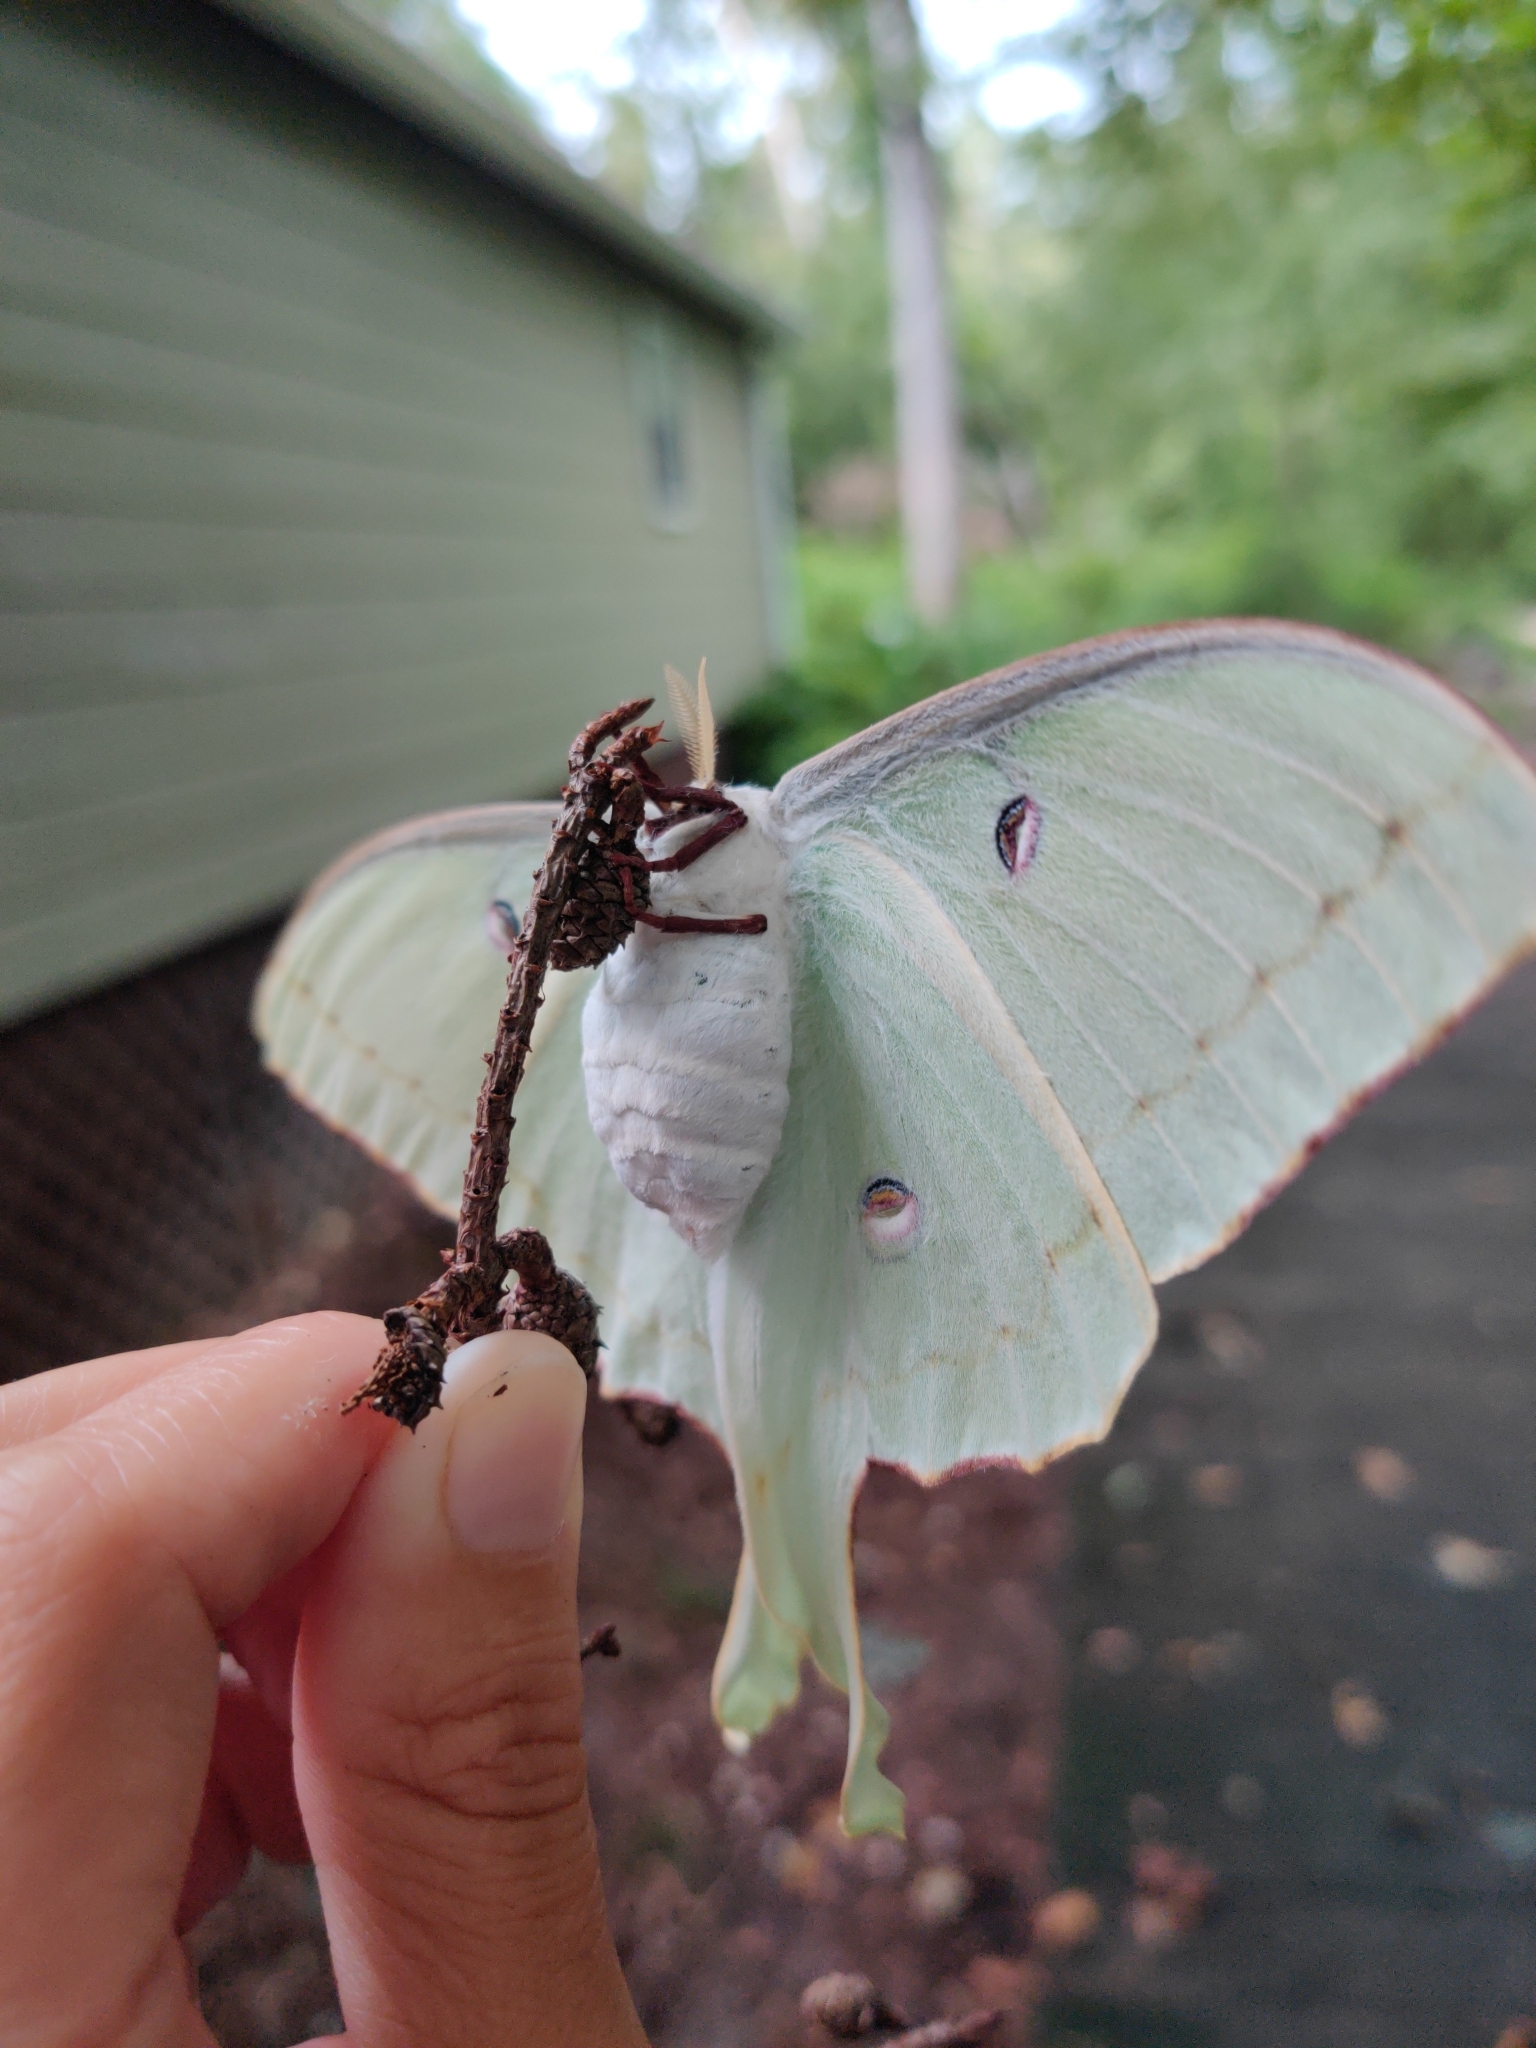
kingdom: Animalia
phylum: Arthropoda
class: Insecta
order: Lepidoptera
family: Saturniidae
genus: Actias
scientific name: Actias luna
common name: Luna moth
